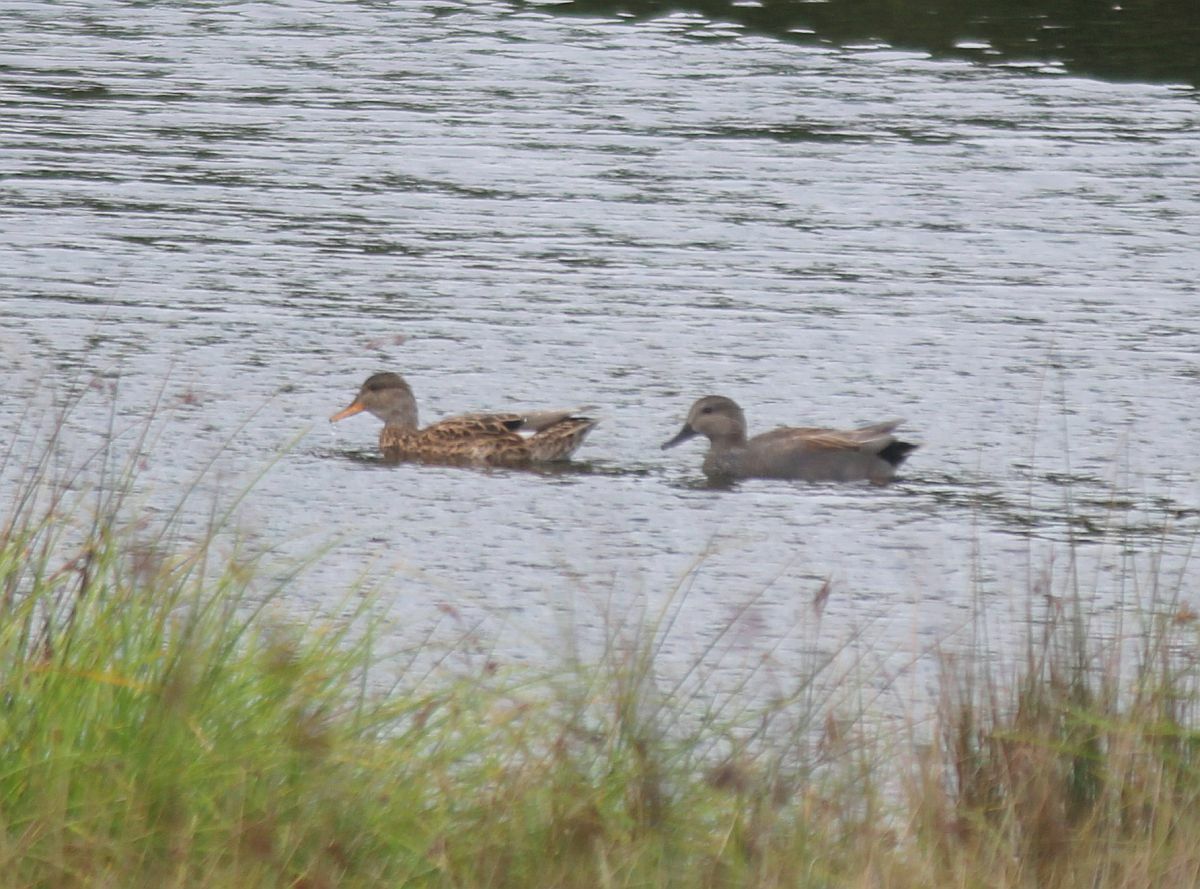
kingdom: Animalia
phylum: Chordata
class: Aves
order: Anseriformes
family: Anatidae
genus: Mareca
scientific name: Mareca strepera
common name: Gadwall
